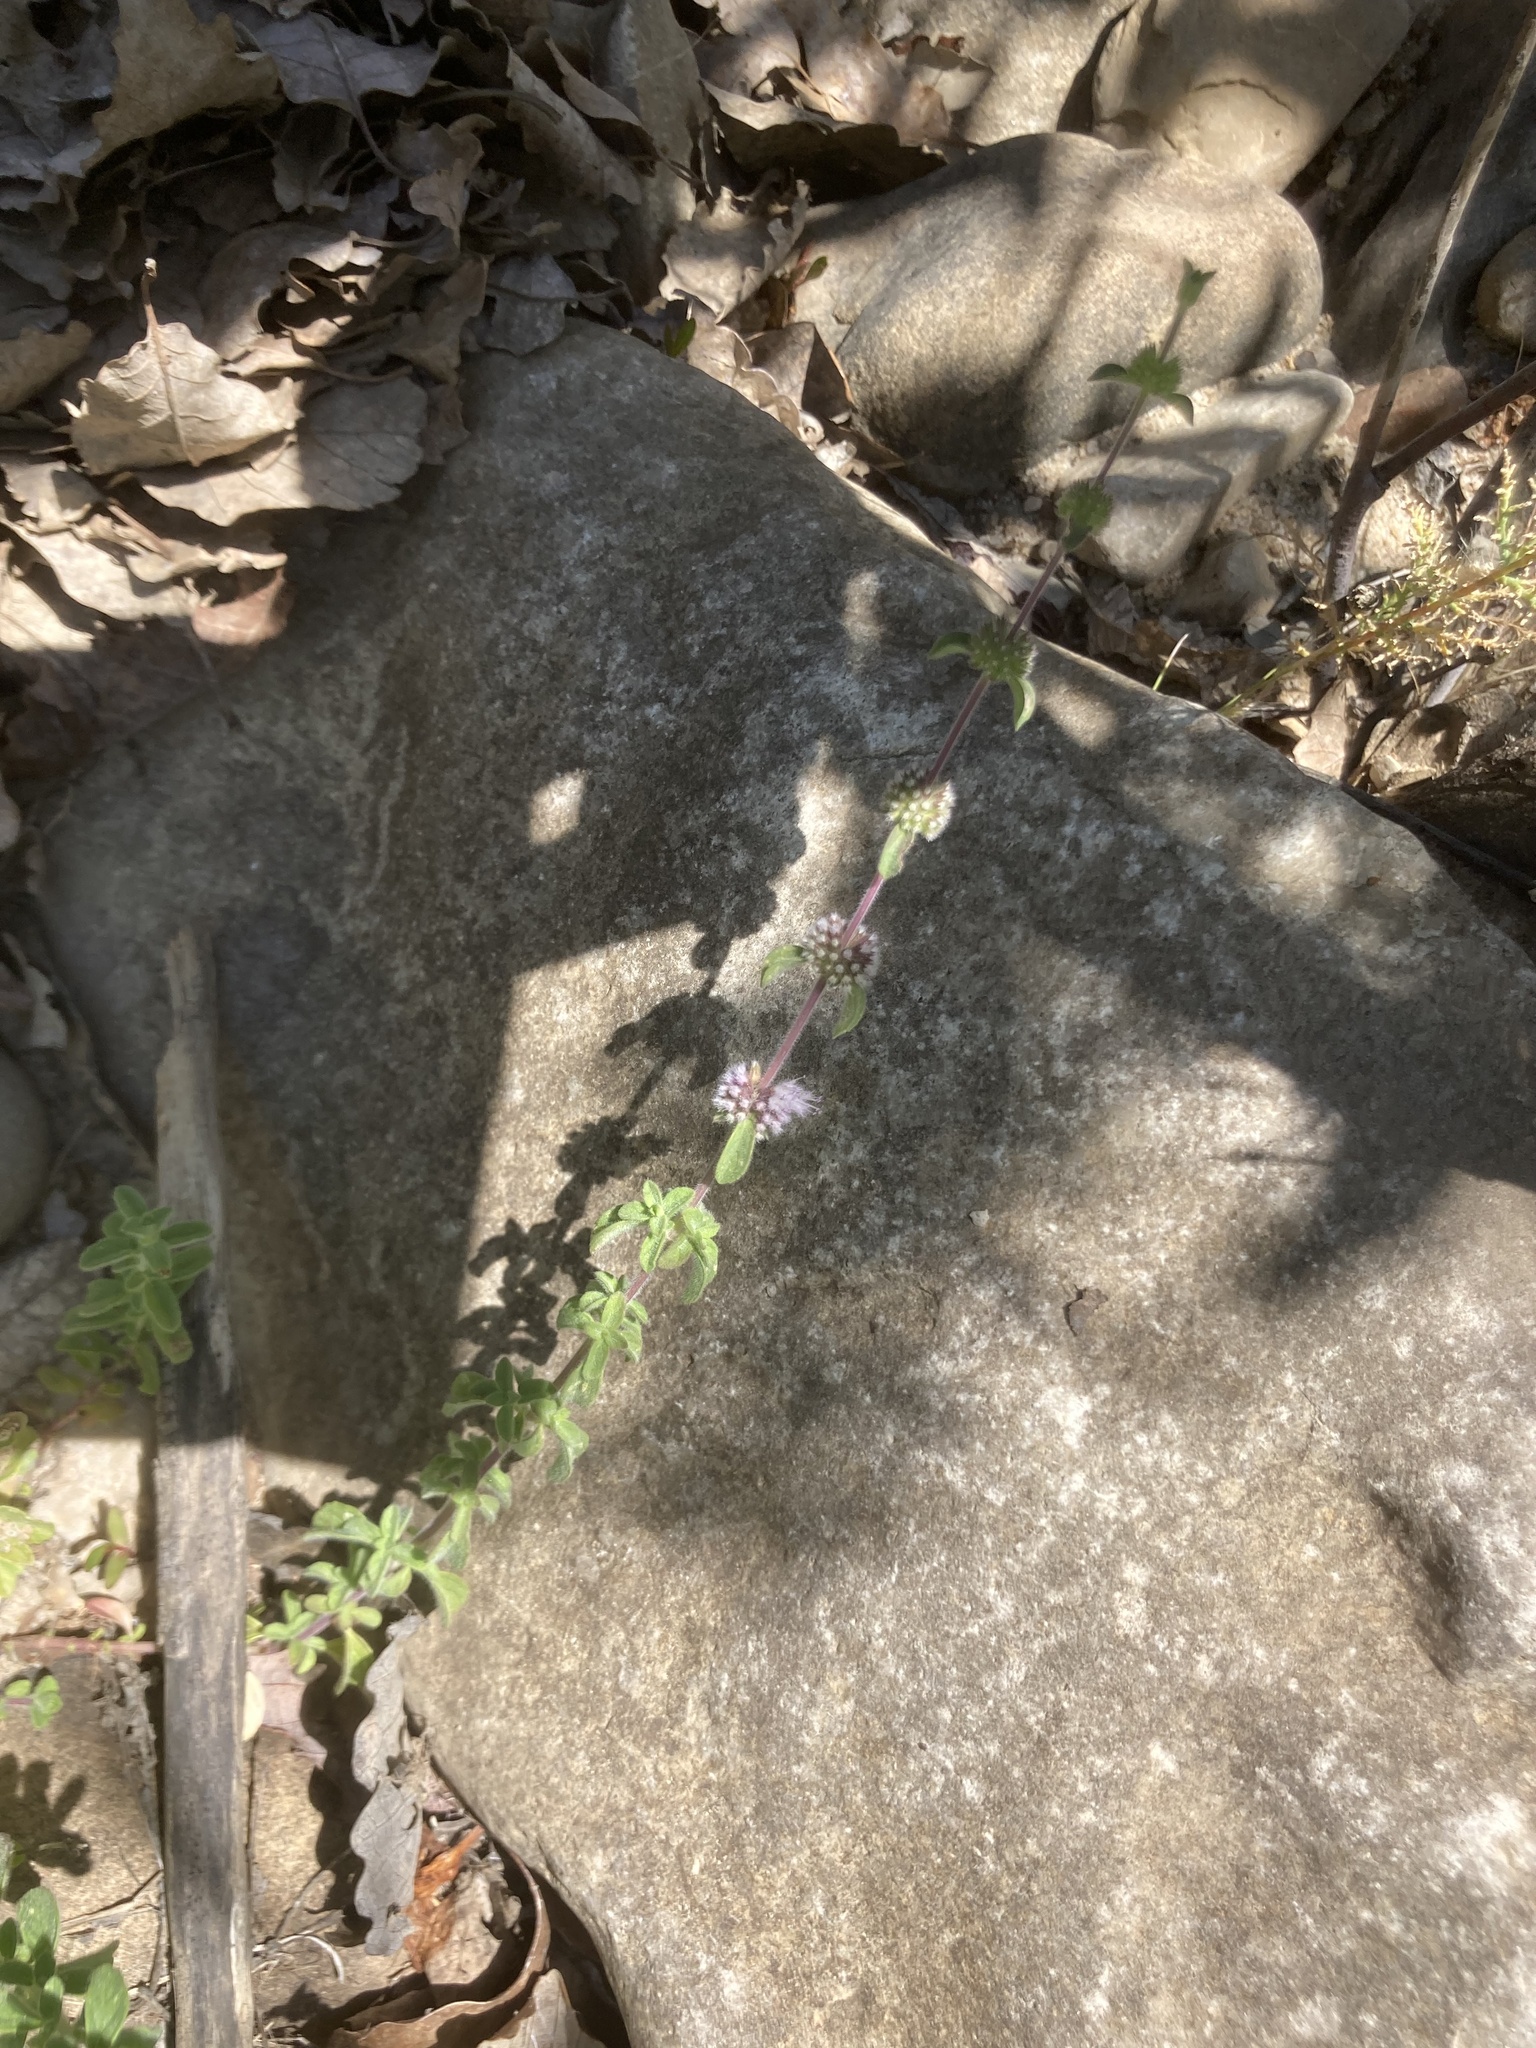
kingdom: Plantae
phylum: Tracheophyta
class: Magnoliopsida
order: Lamiales
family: Lamiaceae
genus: Mentha
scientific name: Mentha pulegium
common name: Pennyroyal
